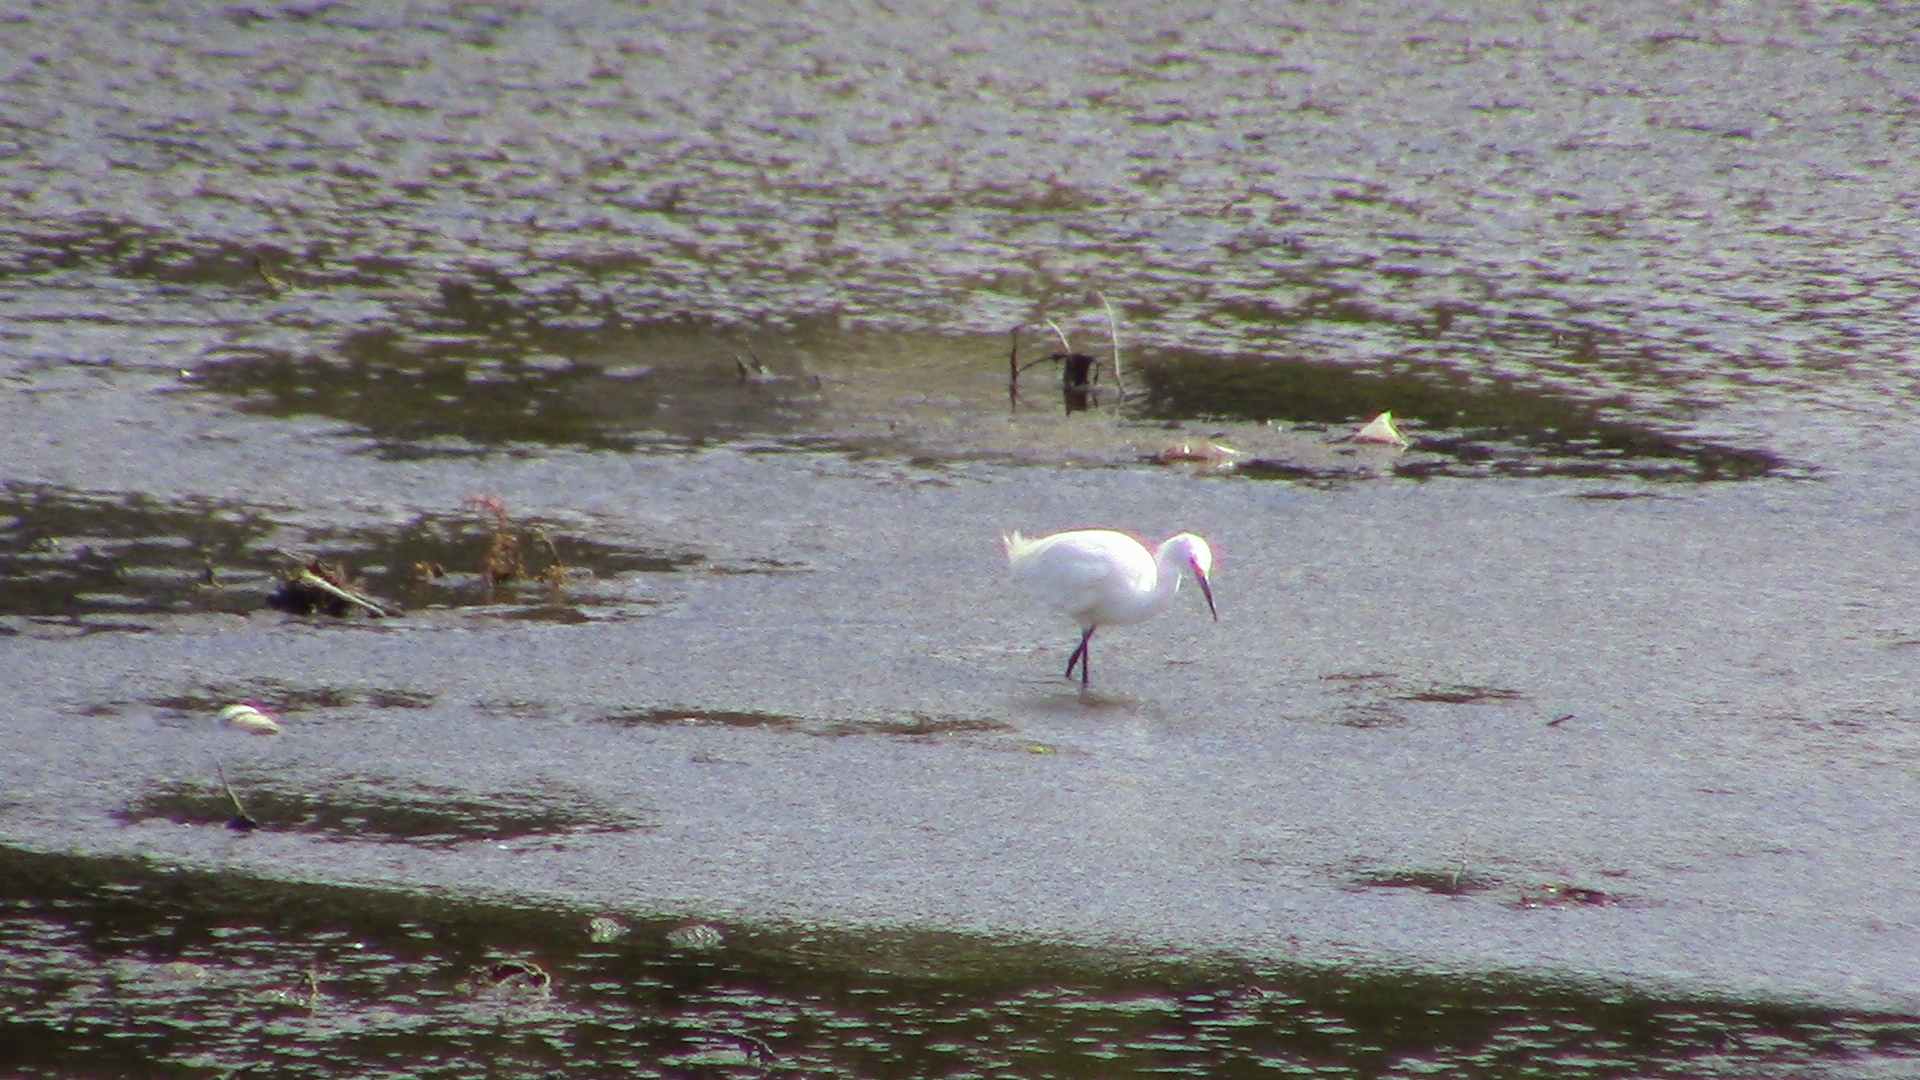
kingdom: Animalia
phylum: Chordata
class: Aves
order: Pelecaniformes
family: Ardeidae
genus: Egretta
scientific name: Egretta thula
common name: Snowy egret
